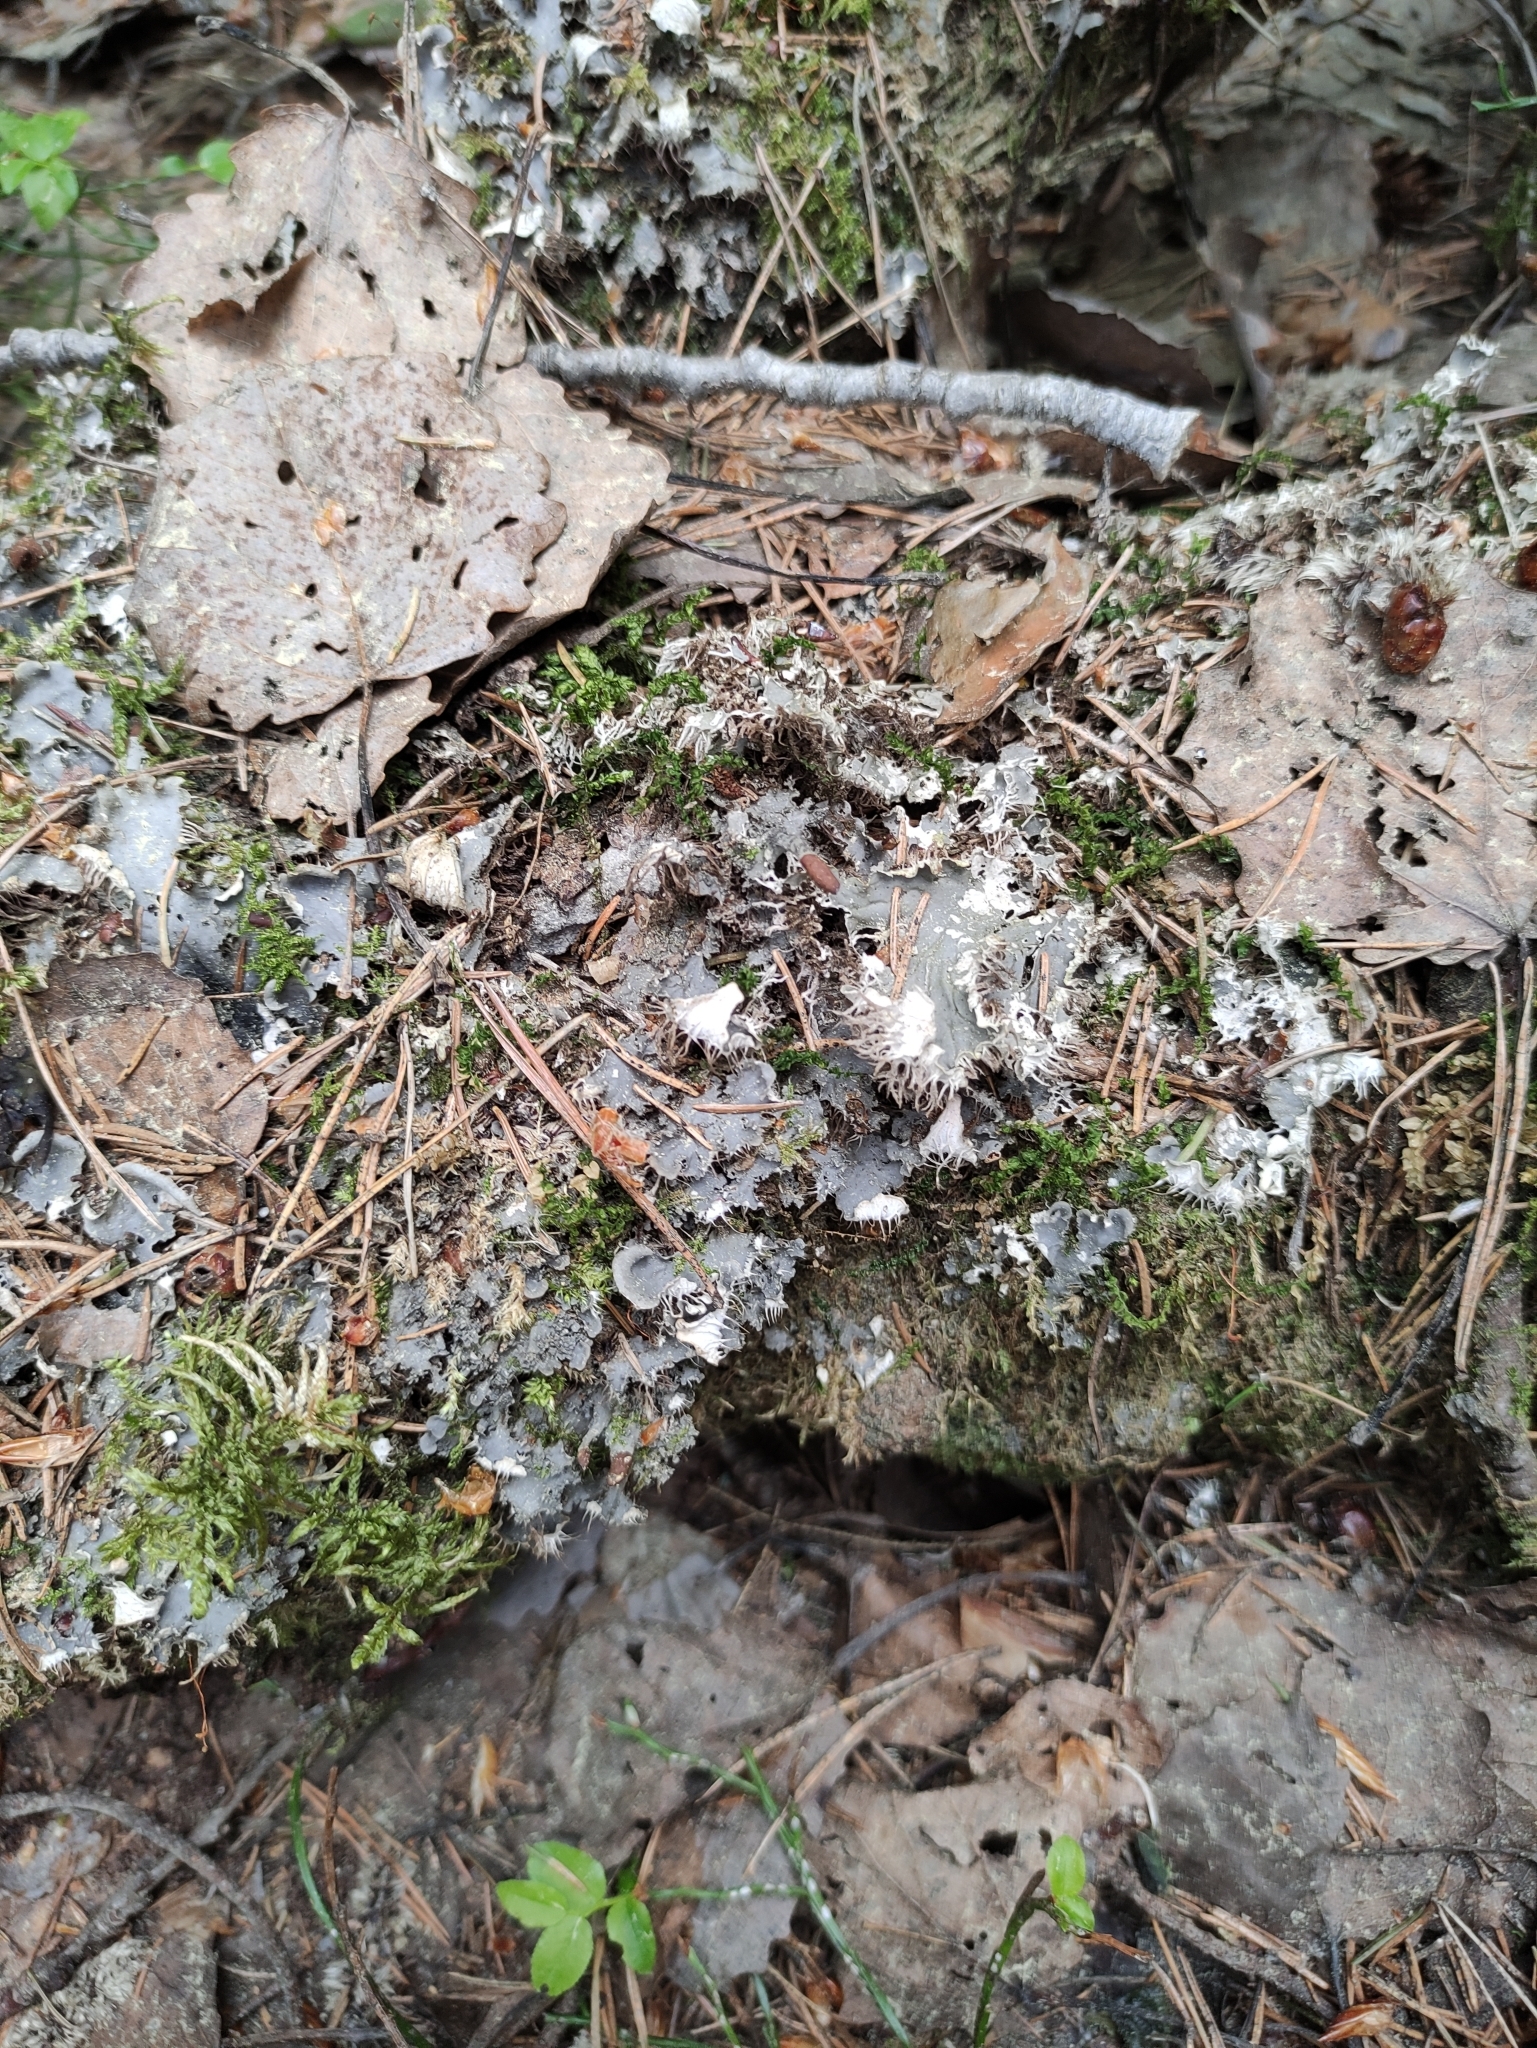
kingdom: Fungi
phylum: Ascomycota
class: Lecanoromycetes
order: Peltigerales
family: Peltigeraceae
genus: Peltigera
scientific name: Peltigera praetextata
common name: Scaly dog-lichen
